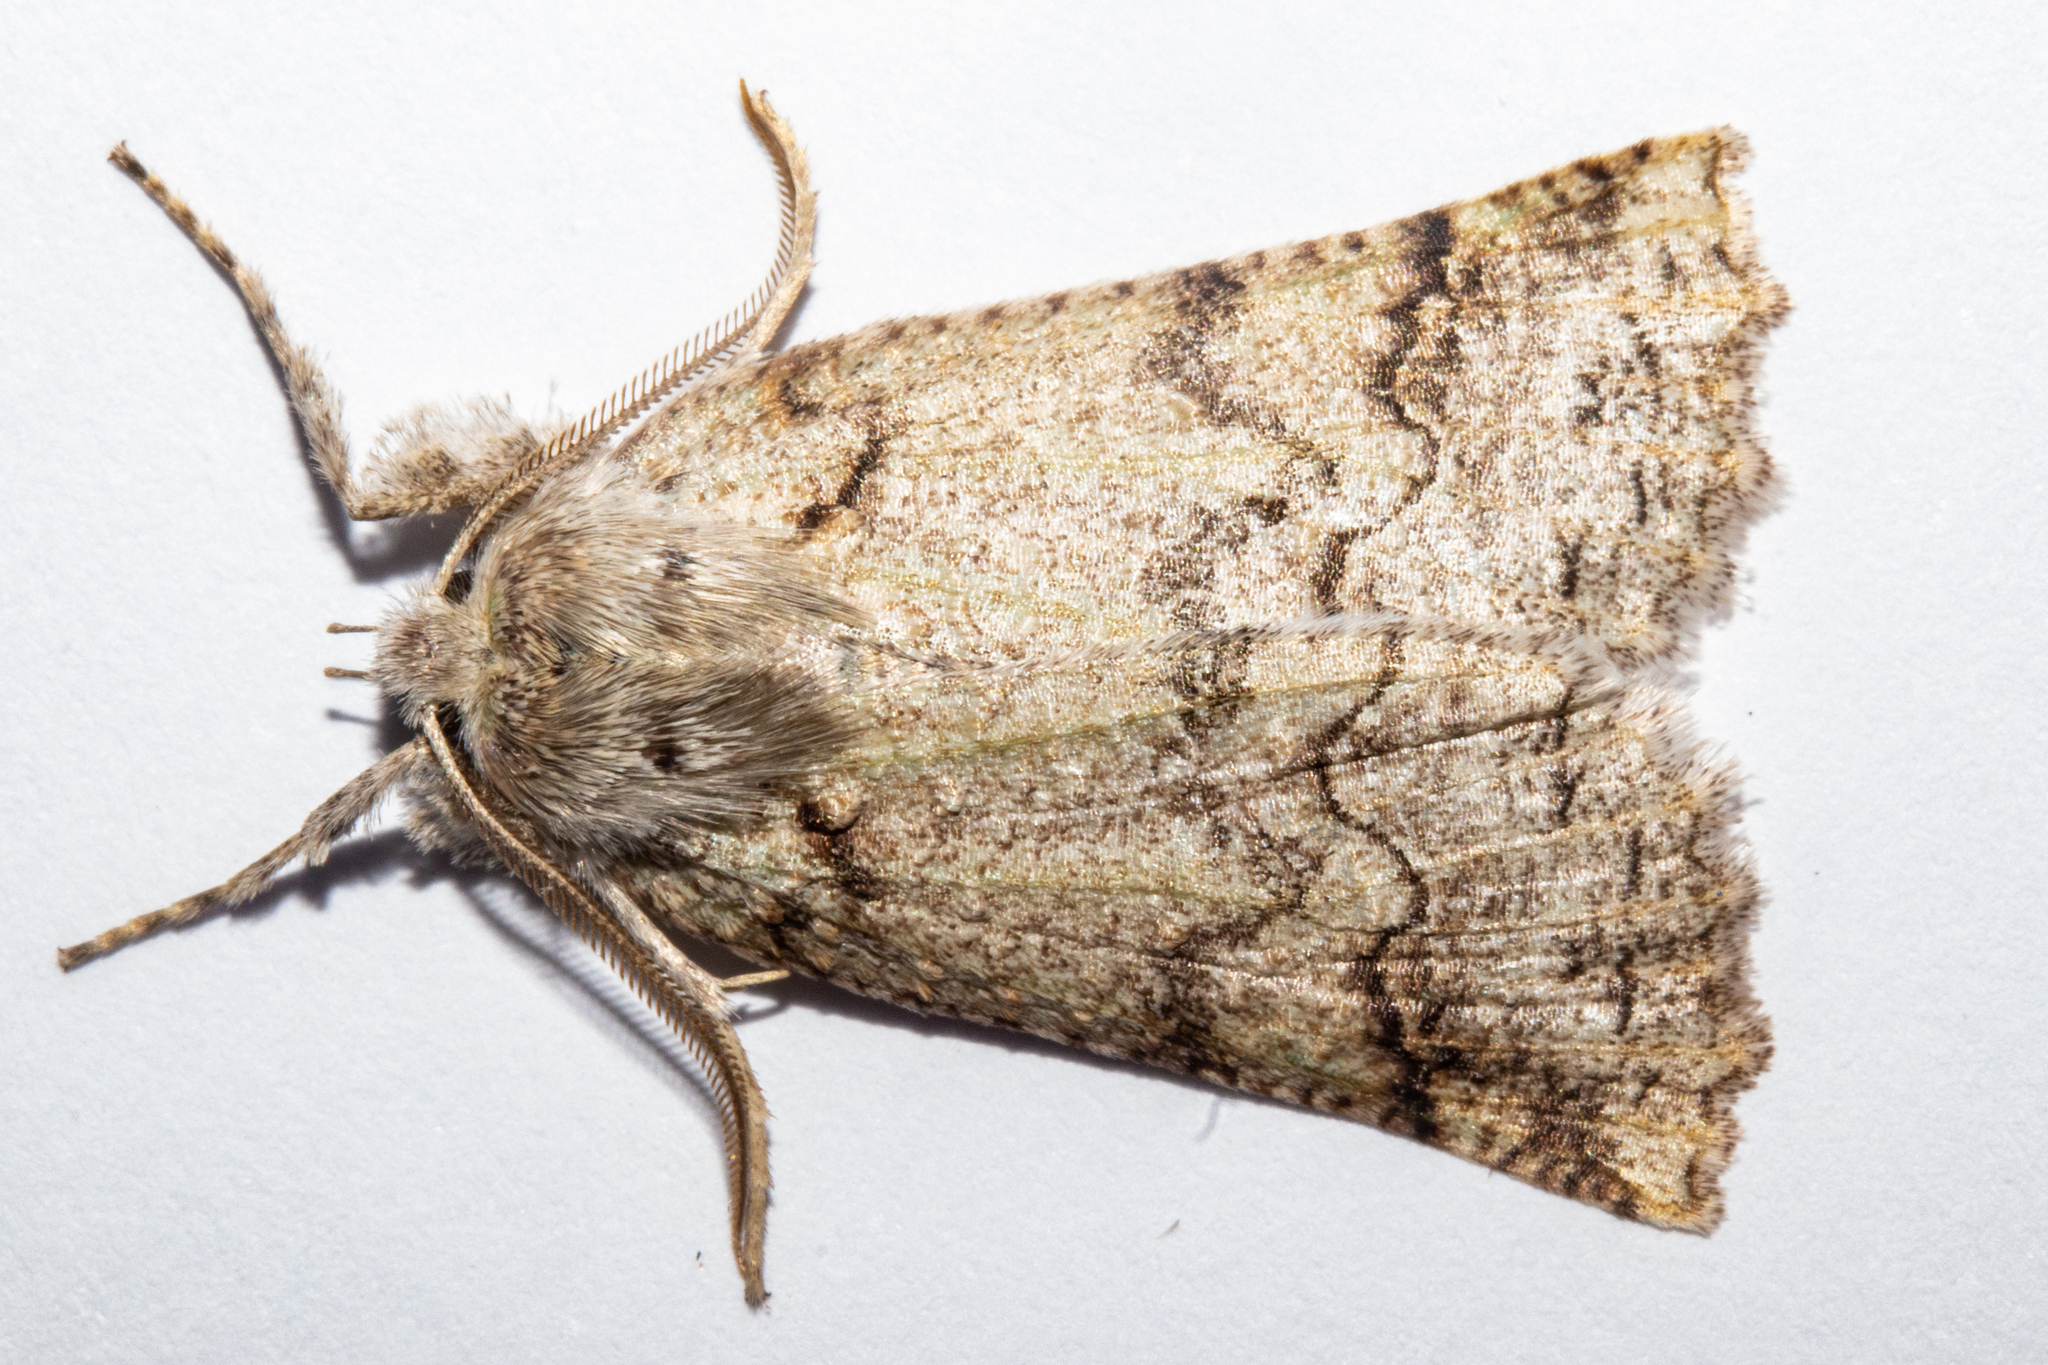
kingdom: Animalia
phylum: Arthropoda
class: Insecta
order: Lepidoptera
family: Geometridae
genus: Declana
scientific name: Declana floccosa
